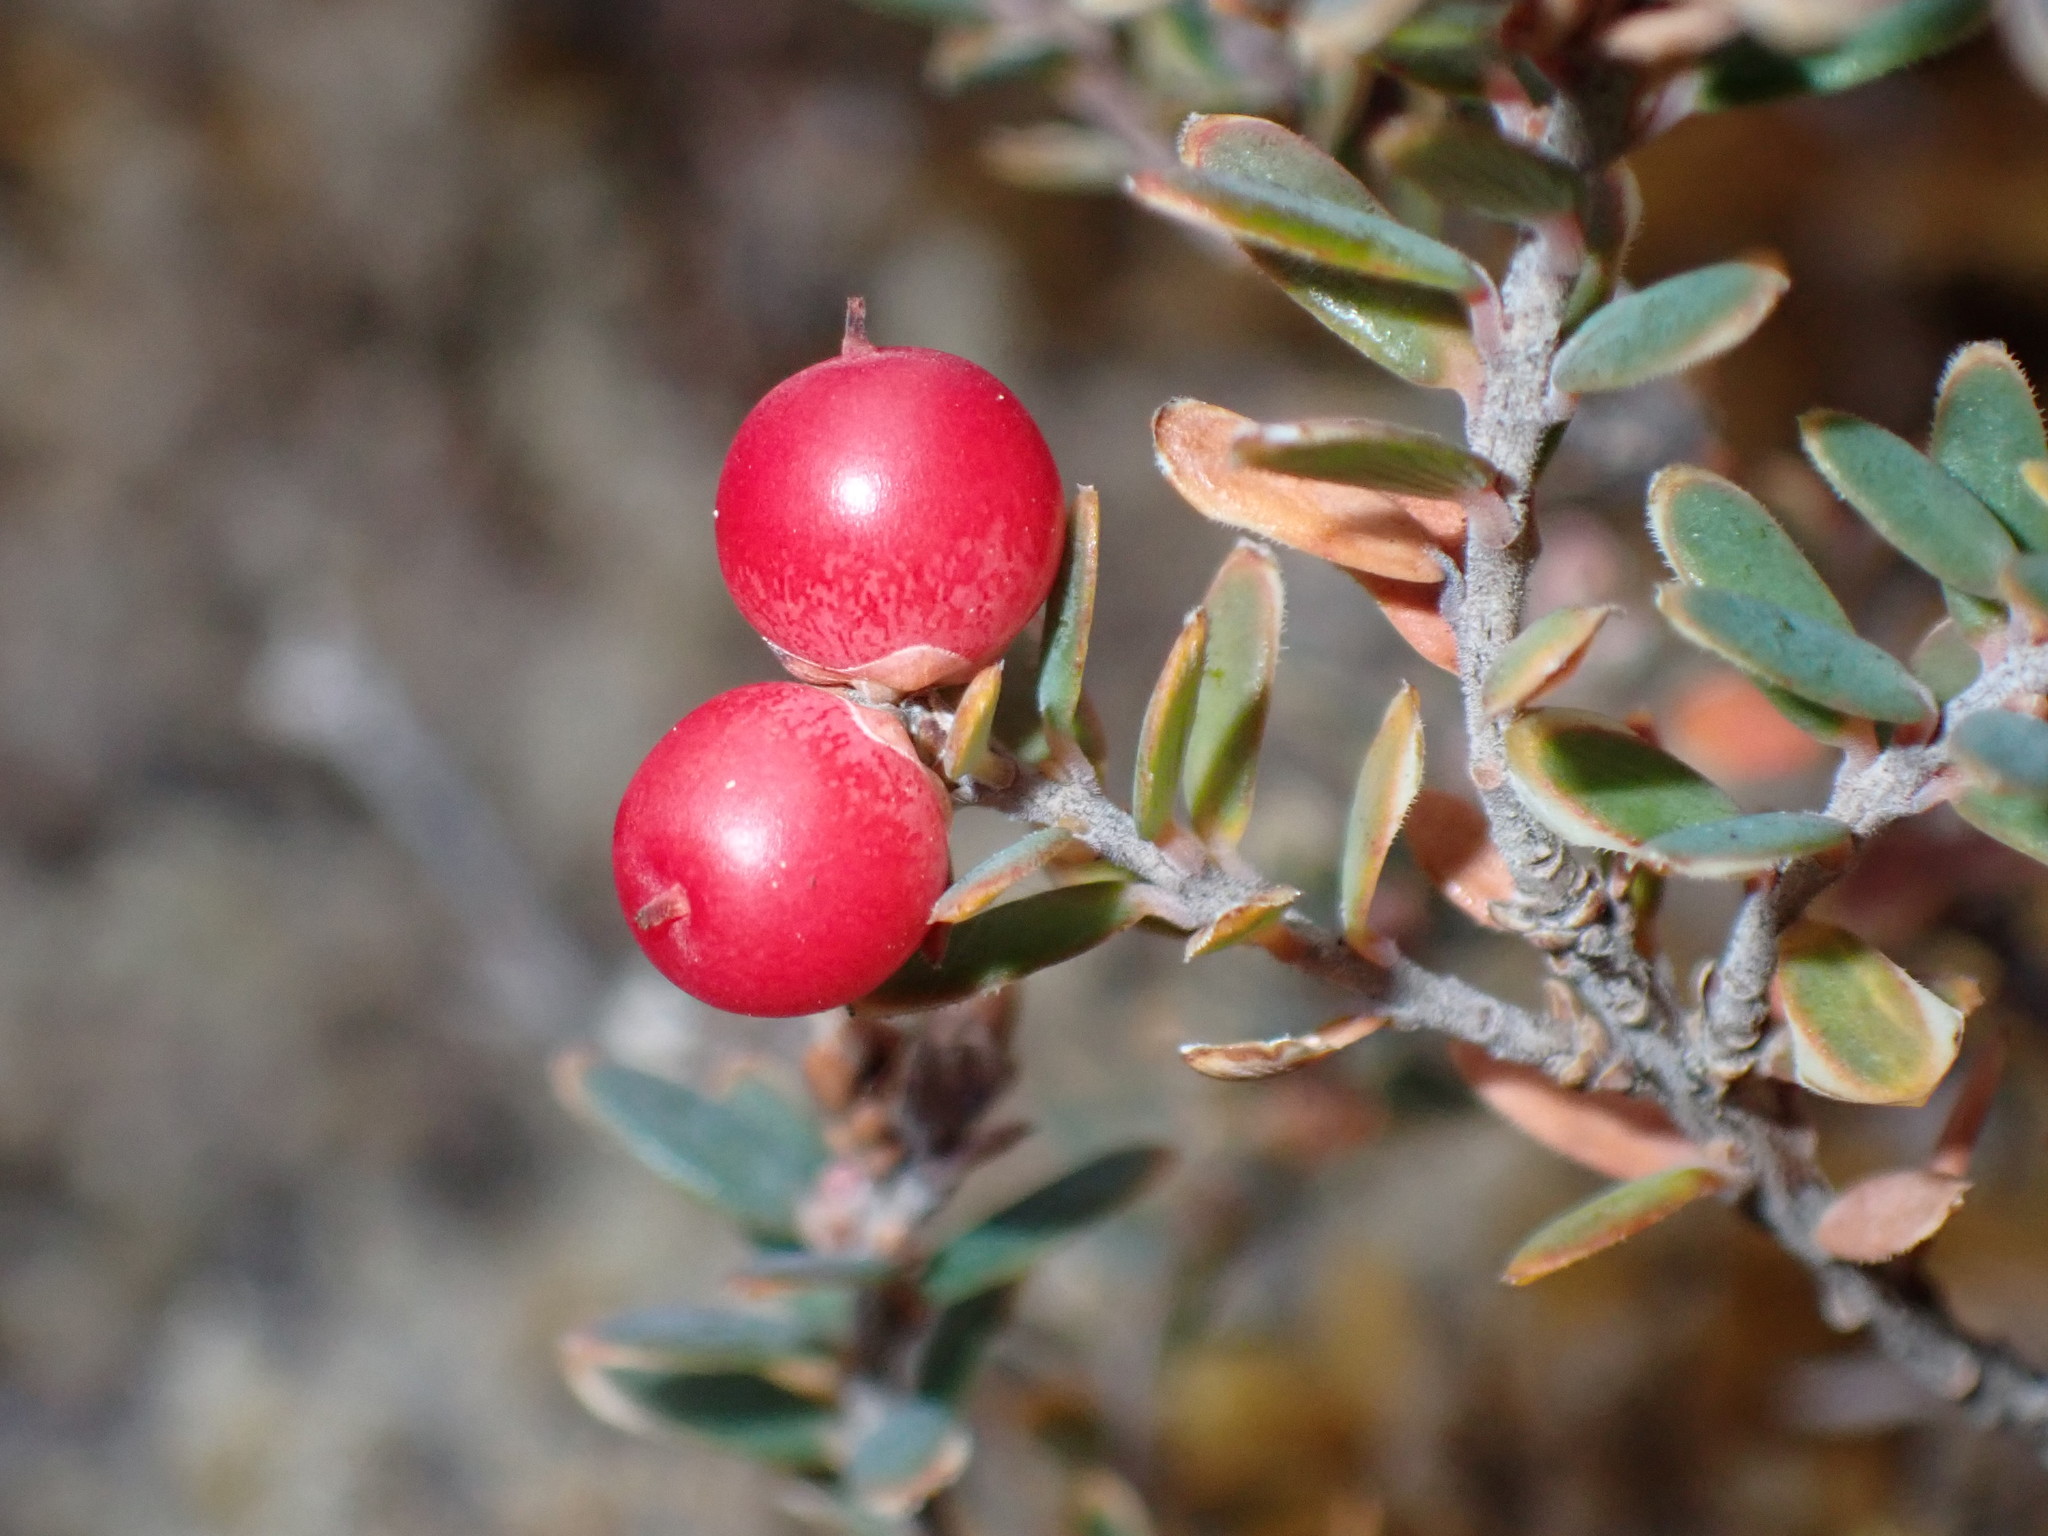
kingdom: Plantae
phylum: Tracheophyta
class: Magnoliopsida
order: Ericales
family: Ericaceae
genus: Acrothamnus
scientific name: Acrothamnus colensoi
